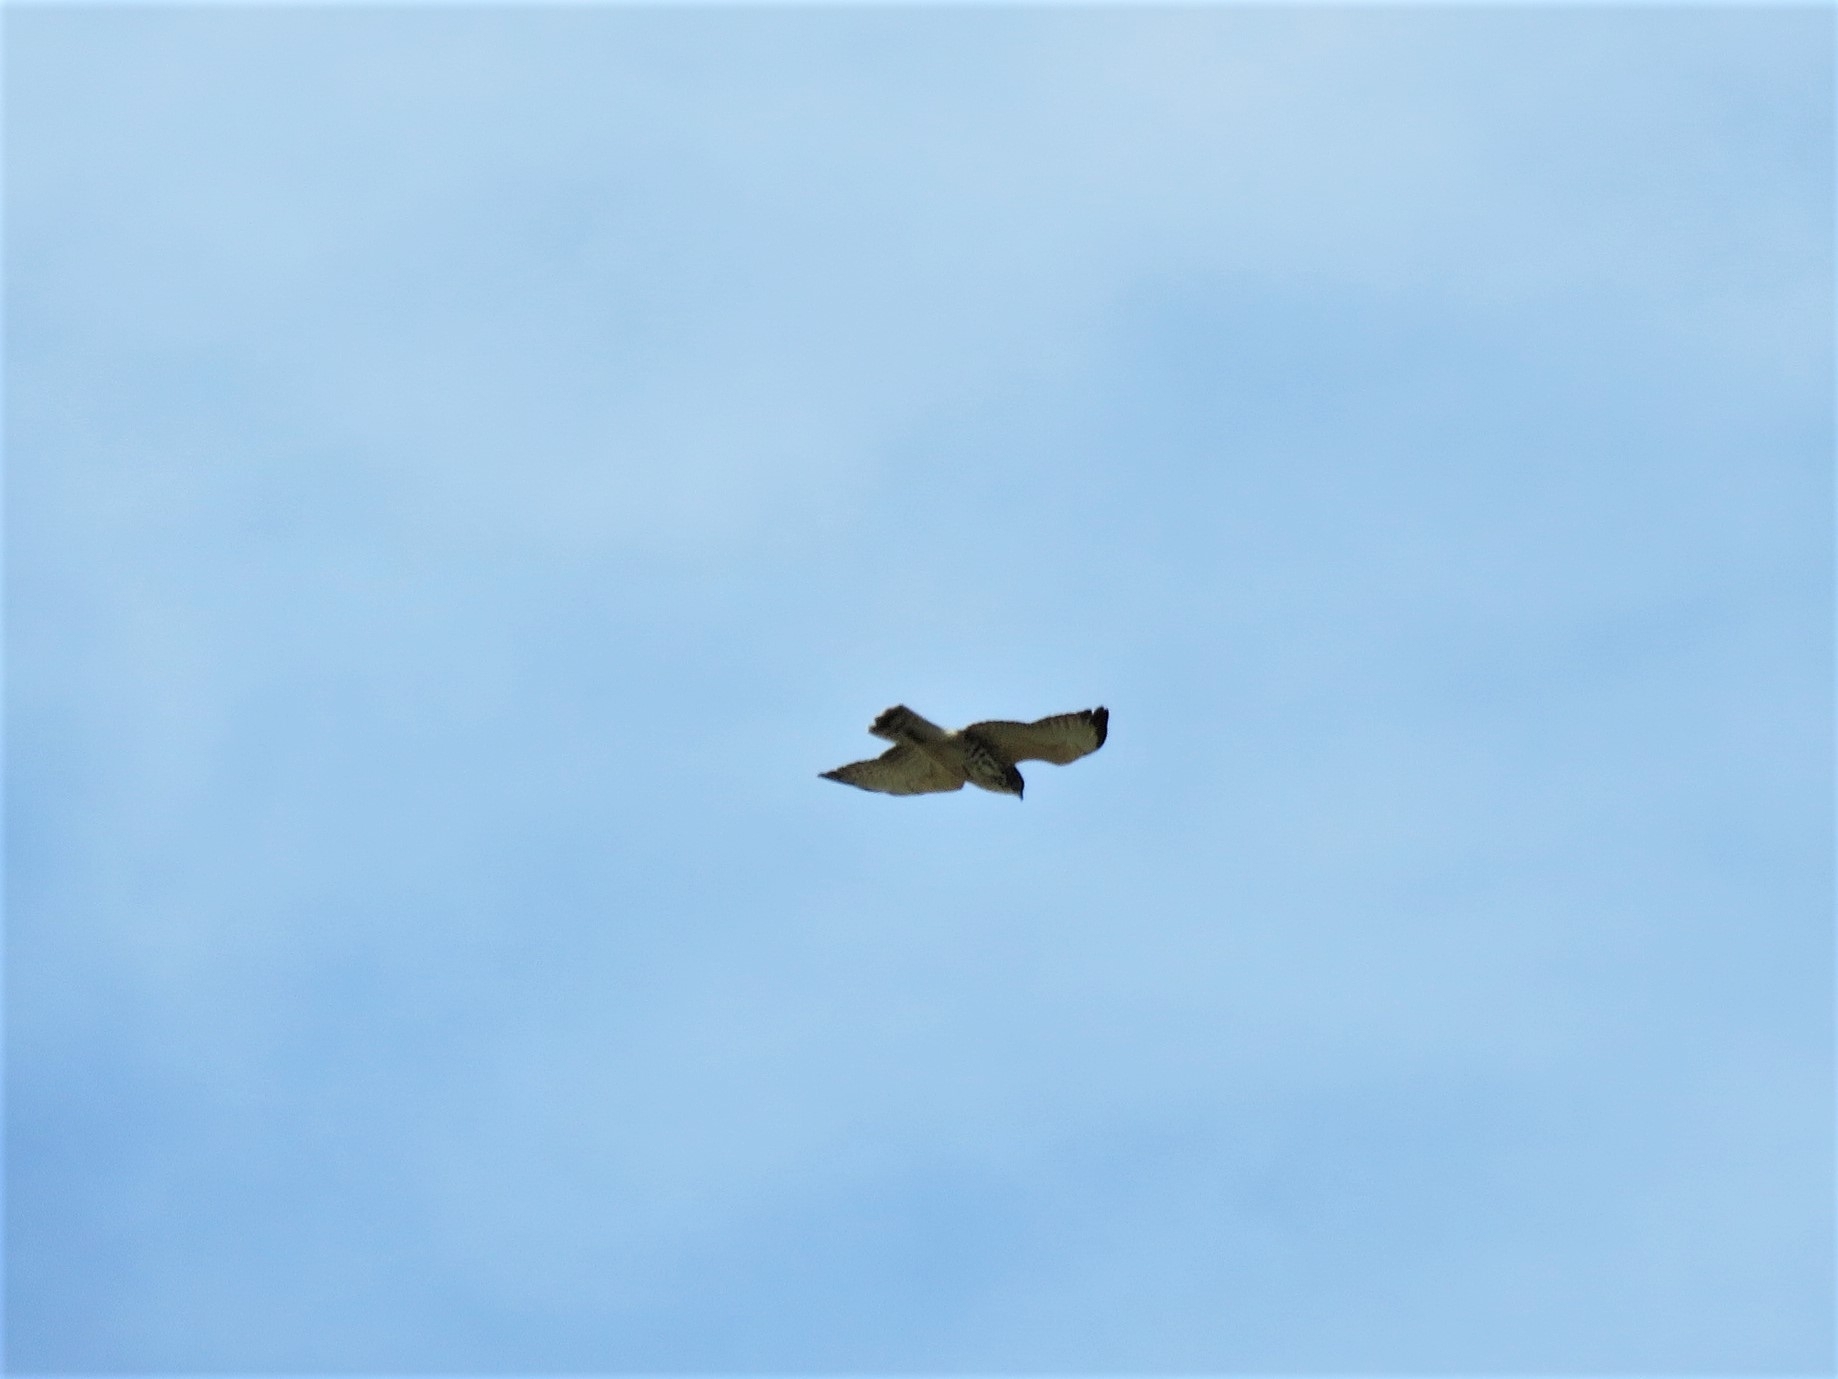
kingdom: Animalia
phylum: Chordata
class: Aves
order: Accipitriformes
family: Accipitridae
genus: Buteo
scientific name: Buteo platypterus
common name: Broad-winged hawk
